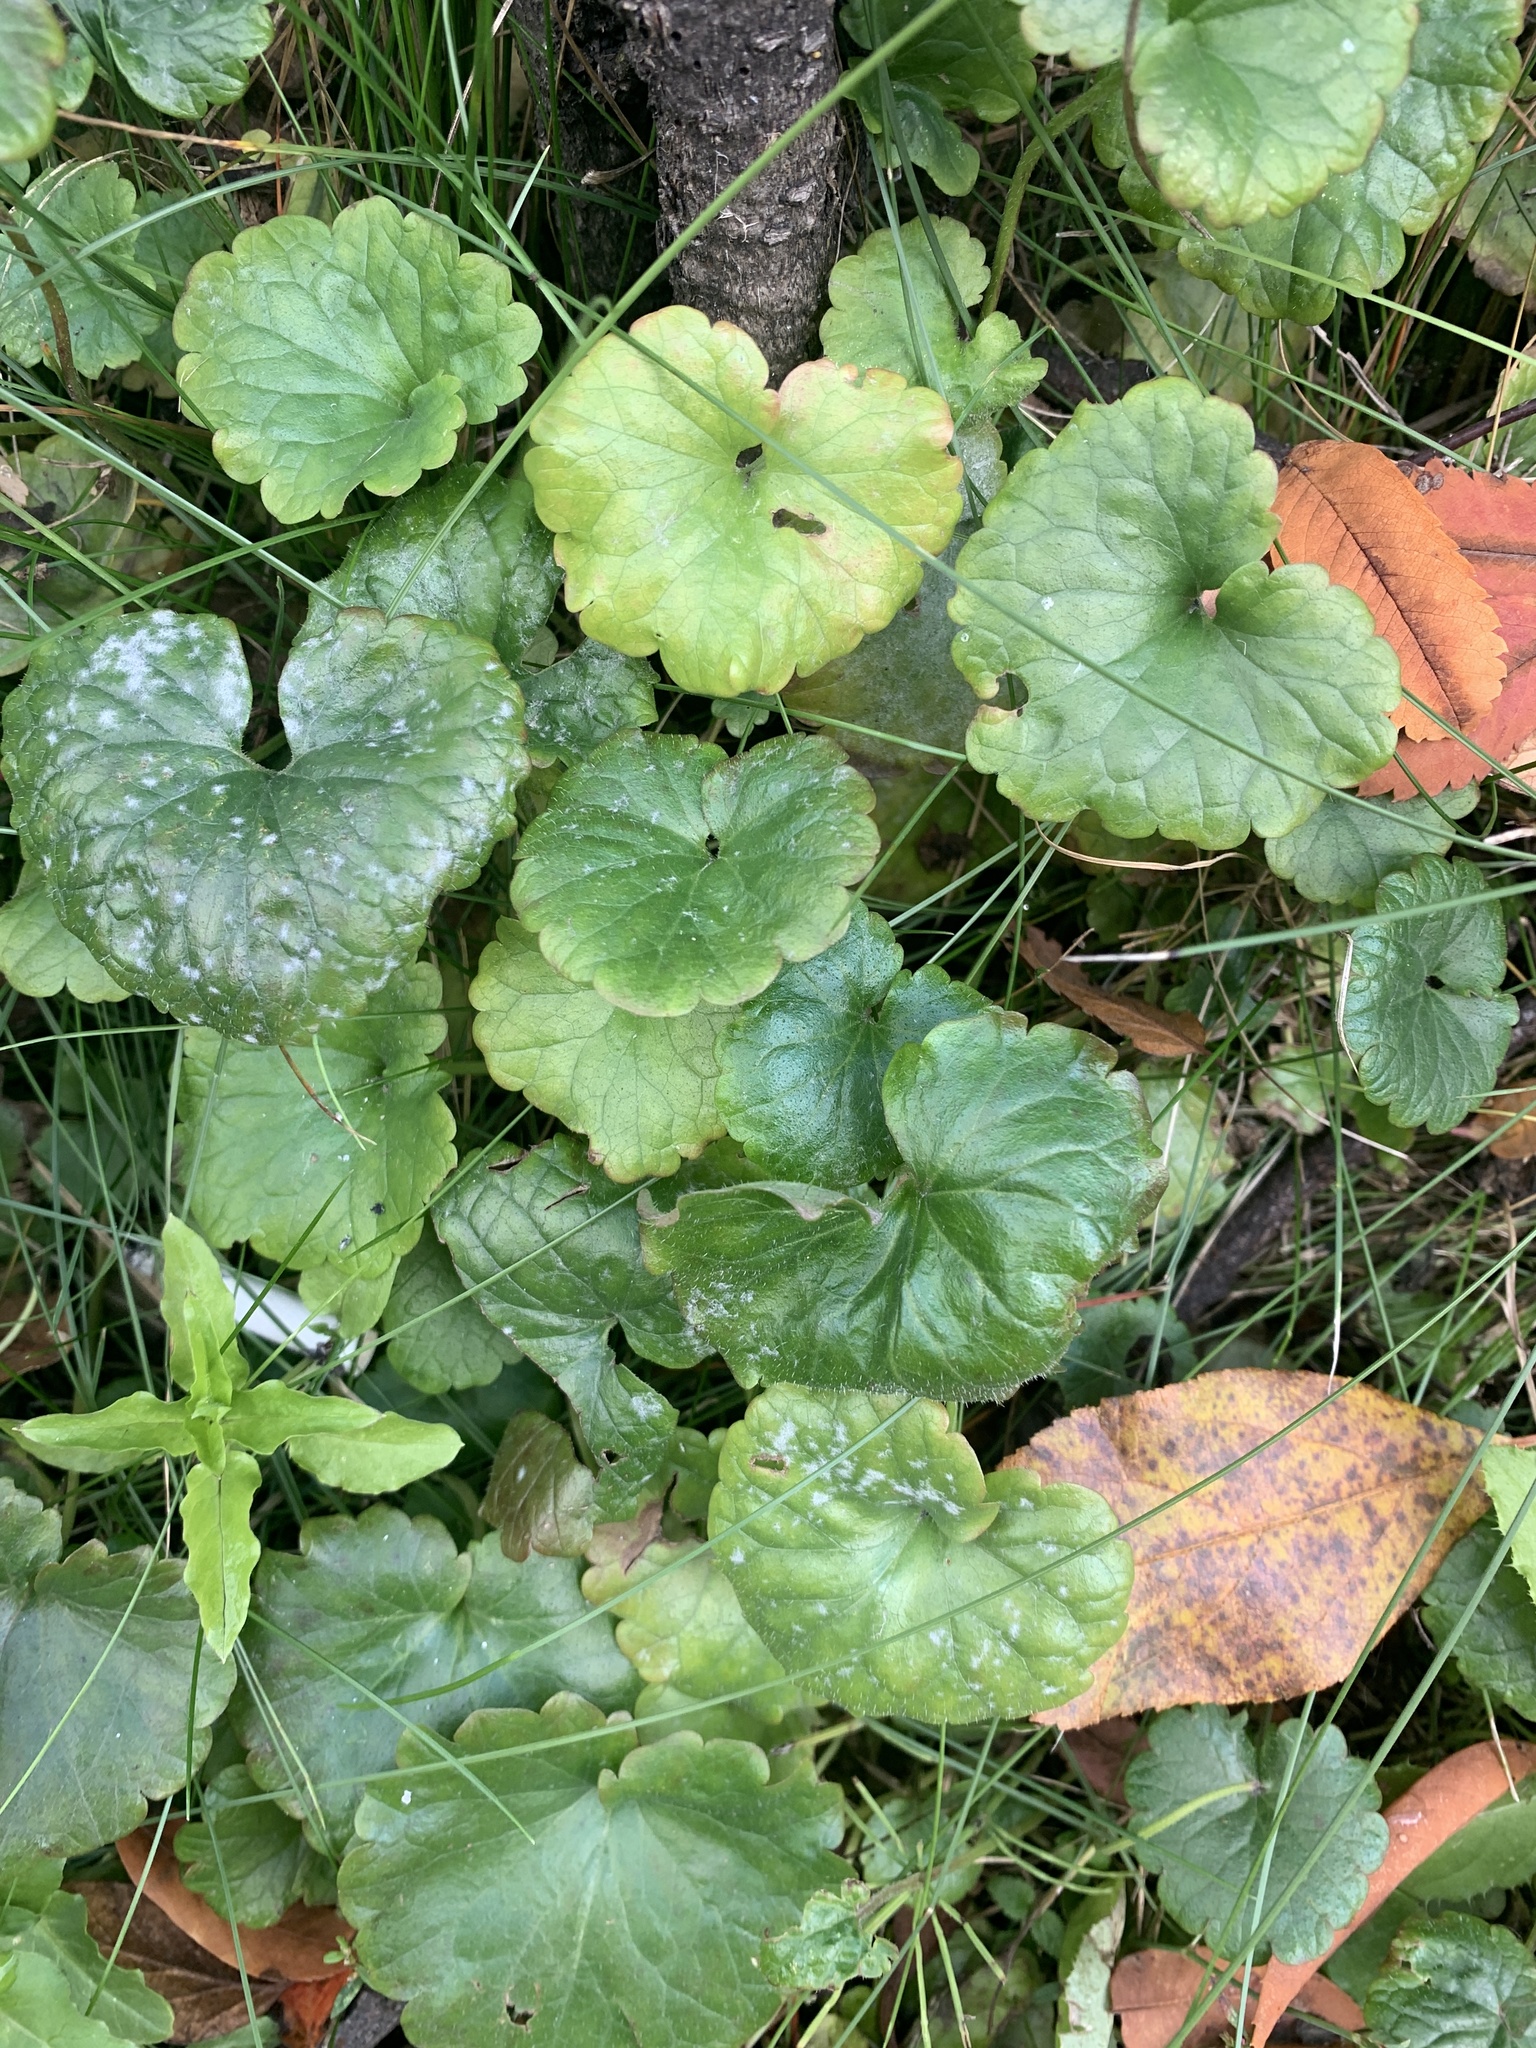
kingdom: Plantae
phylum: Tracheophyta
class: Magnoliopsida
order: Lamiales
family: Lamiaceae
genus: Glechoma
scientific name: Glechoma hederacea
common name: Ground ivy
